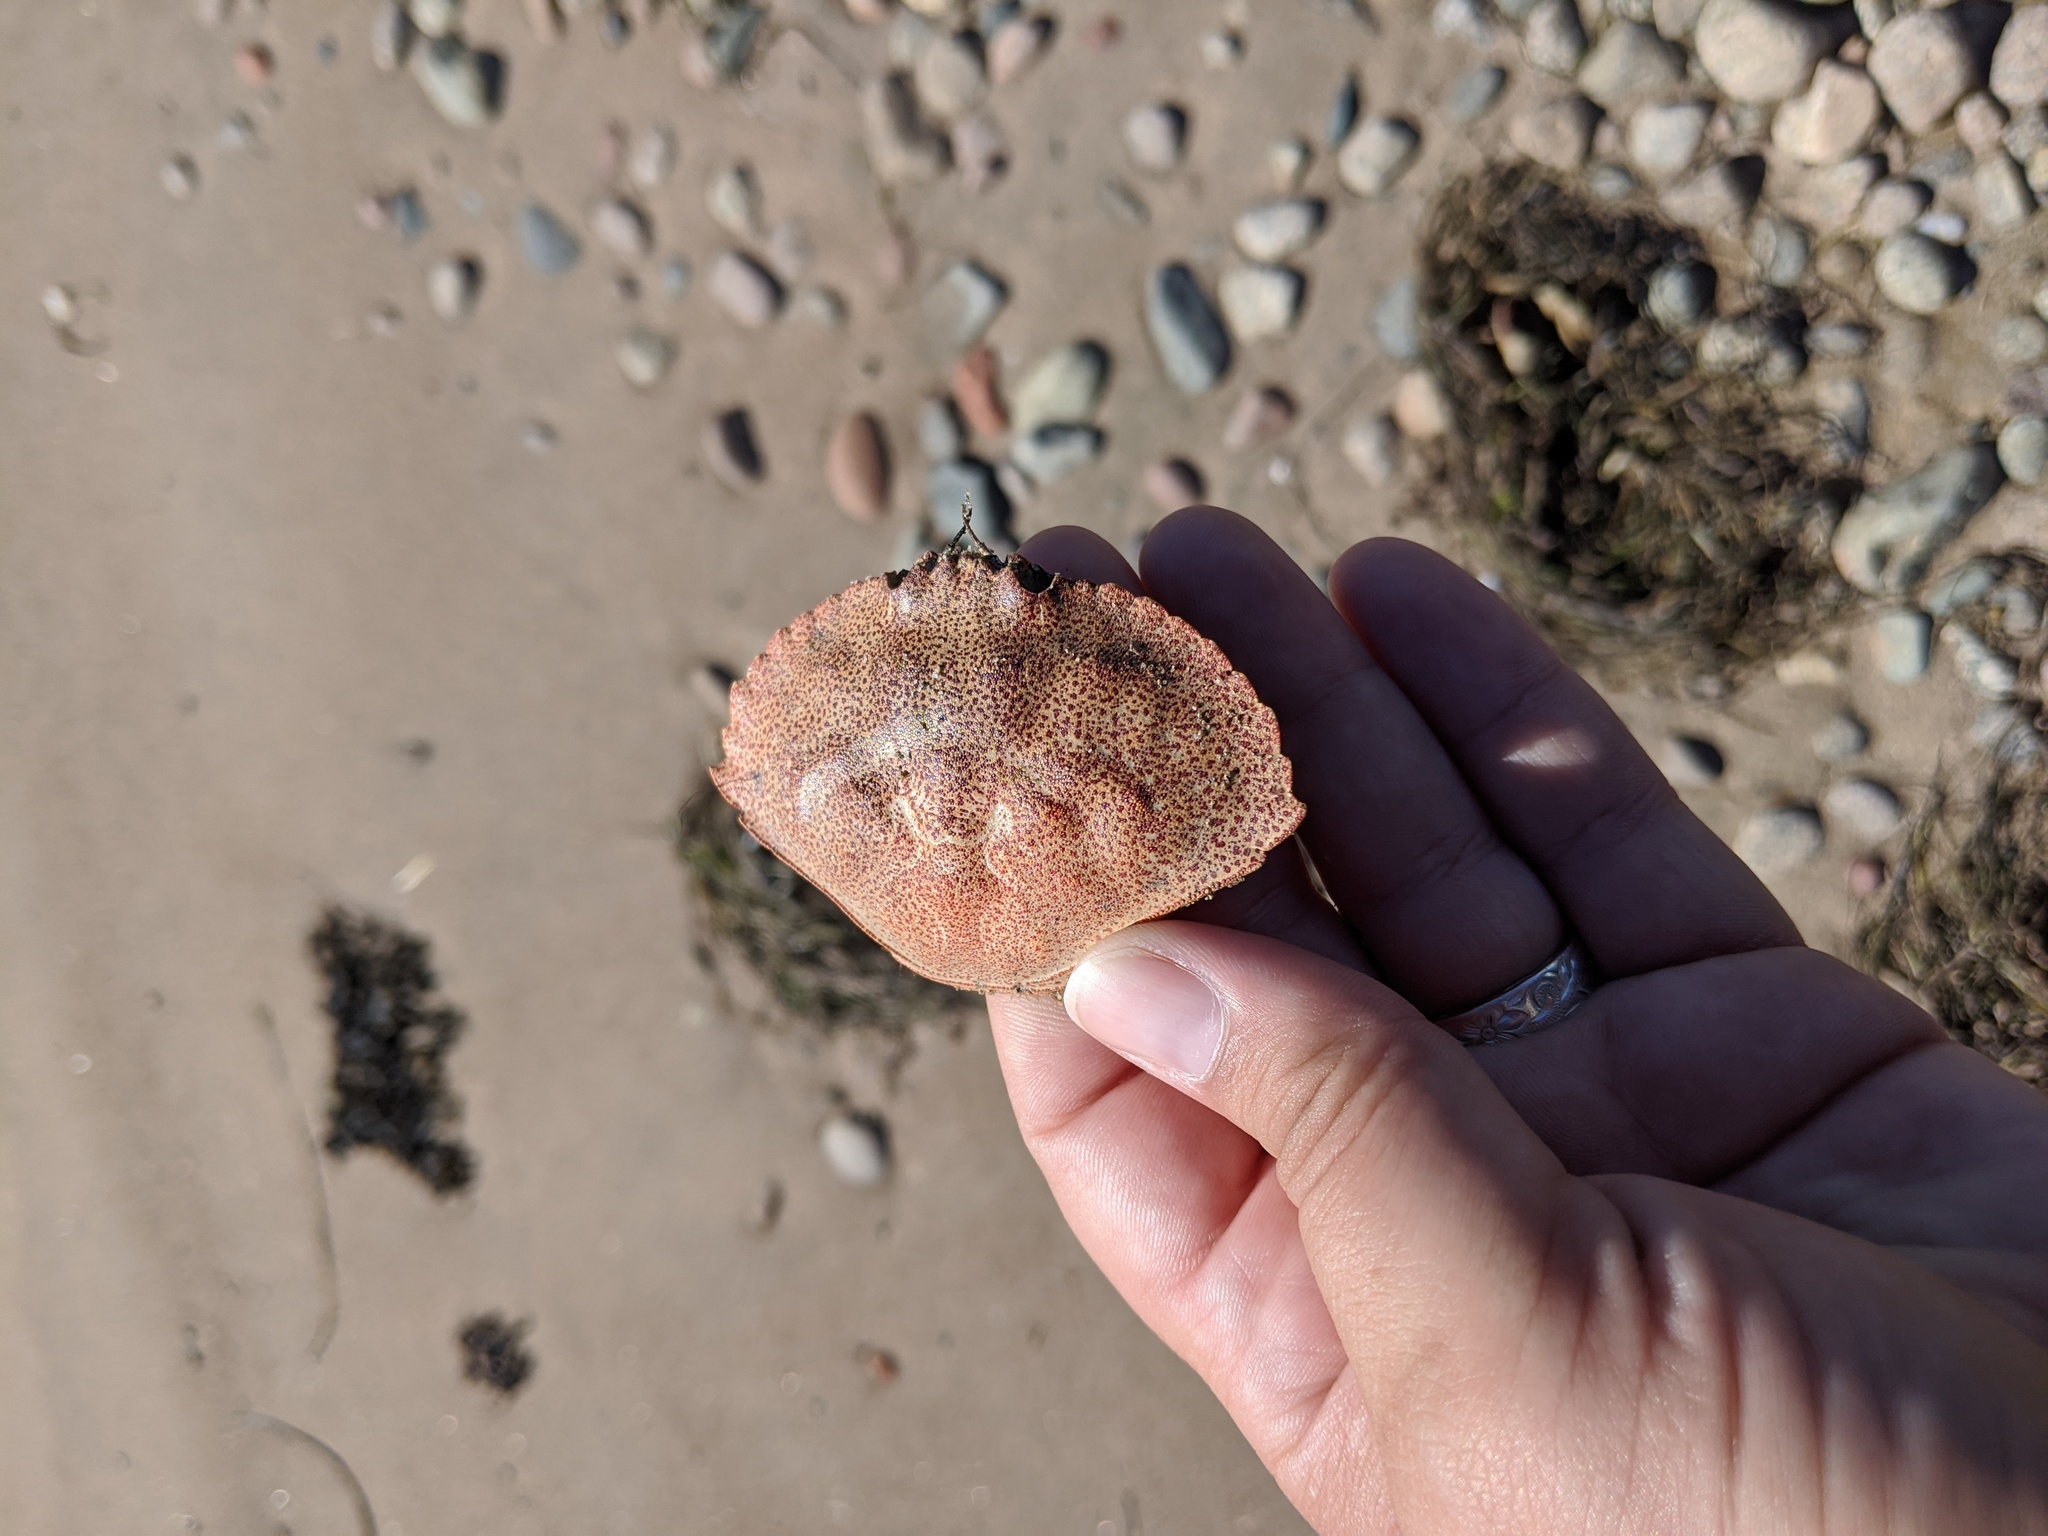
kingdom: Animalia
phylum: Arthropoda
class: Malacostraca
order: Decapoda
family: Cancridae
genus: Cancer
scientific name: Cancer irroratus
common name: Atlantic rock crab
